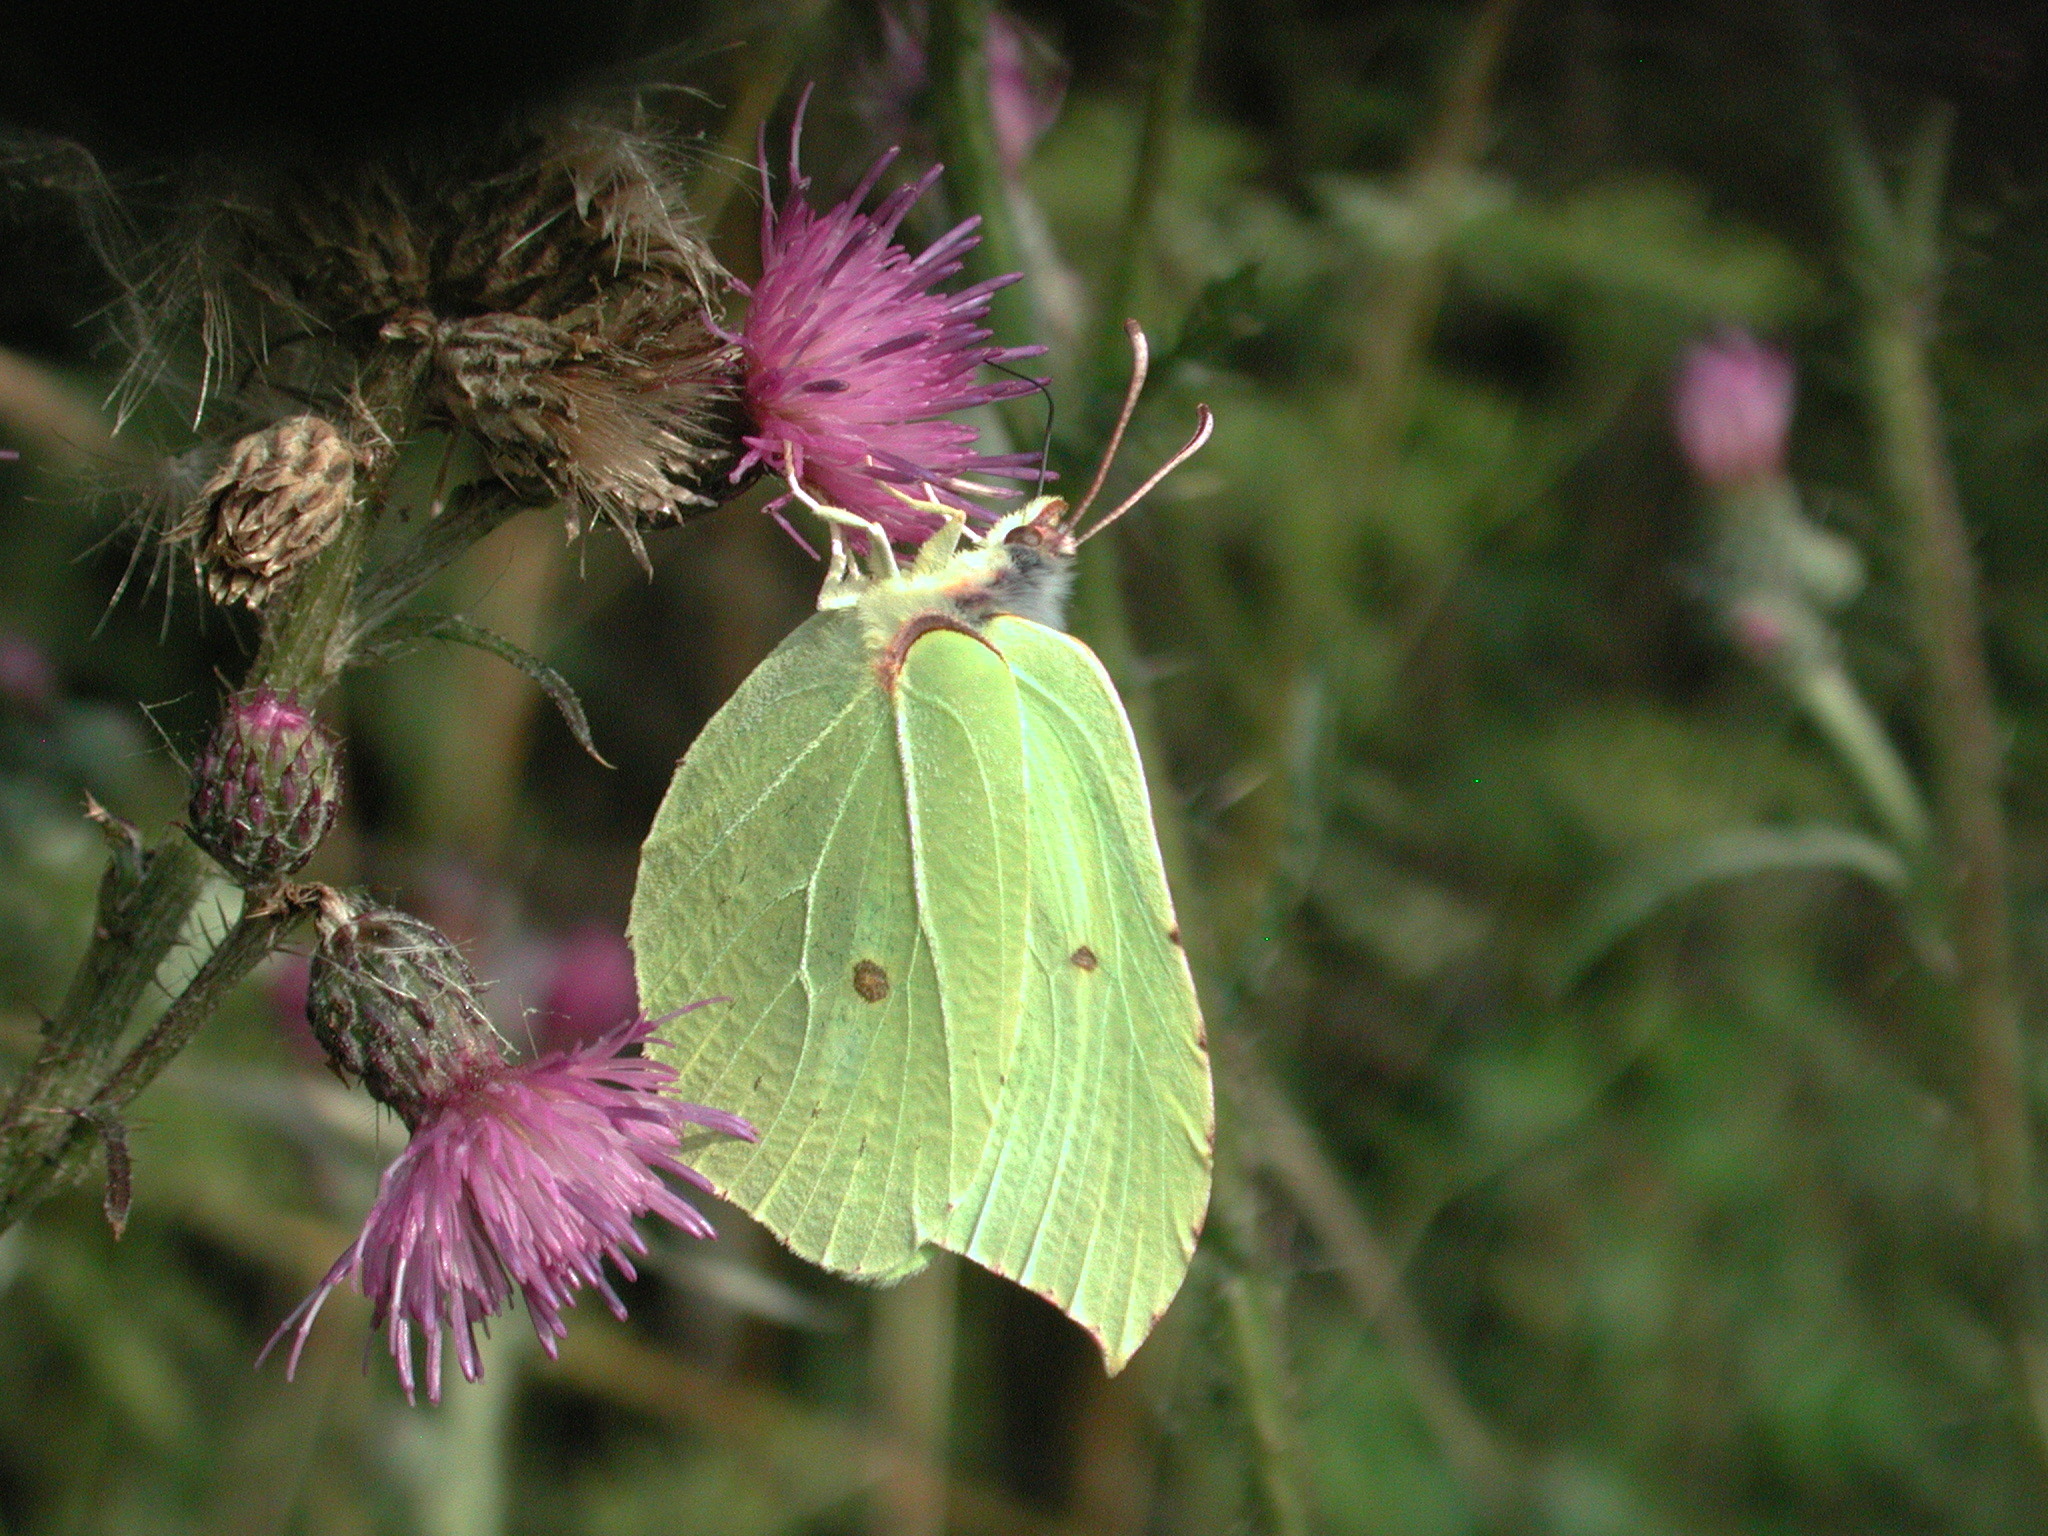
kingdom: Animalia
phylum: Arthropoda
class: Insecta
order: Lepidoptera
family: Pieridae
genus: Gonepteryx
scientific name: Gonepteryx rhamni
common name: Brimstone
